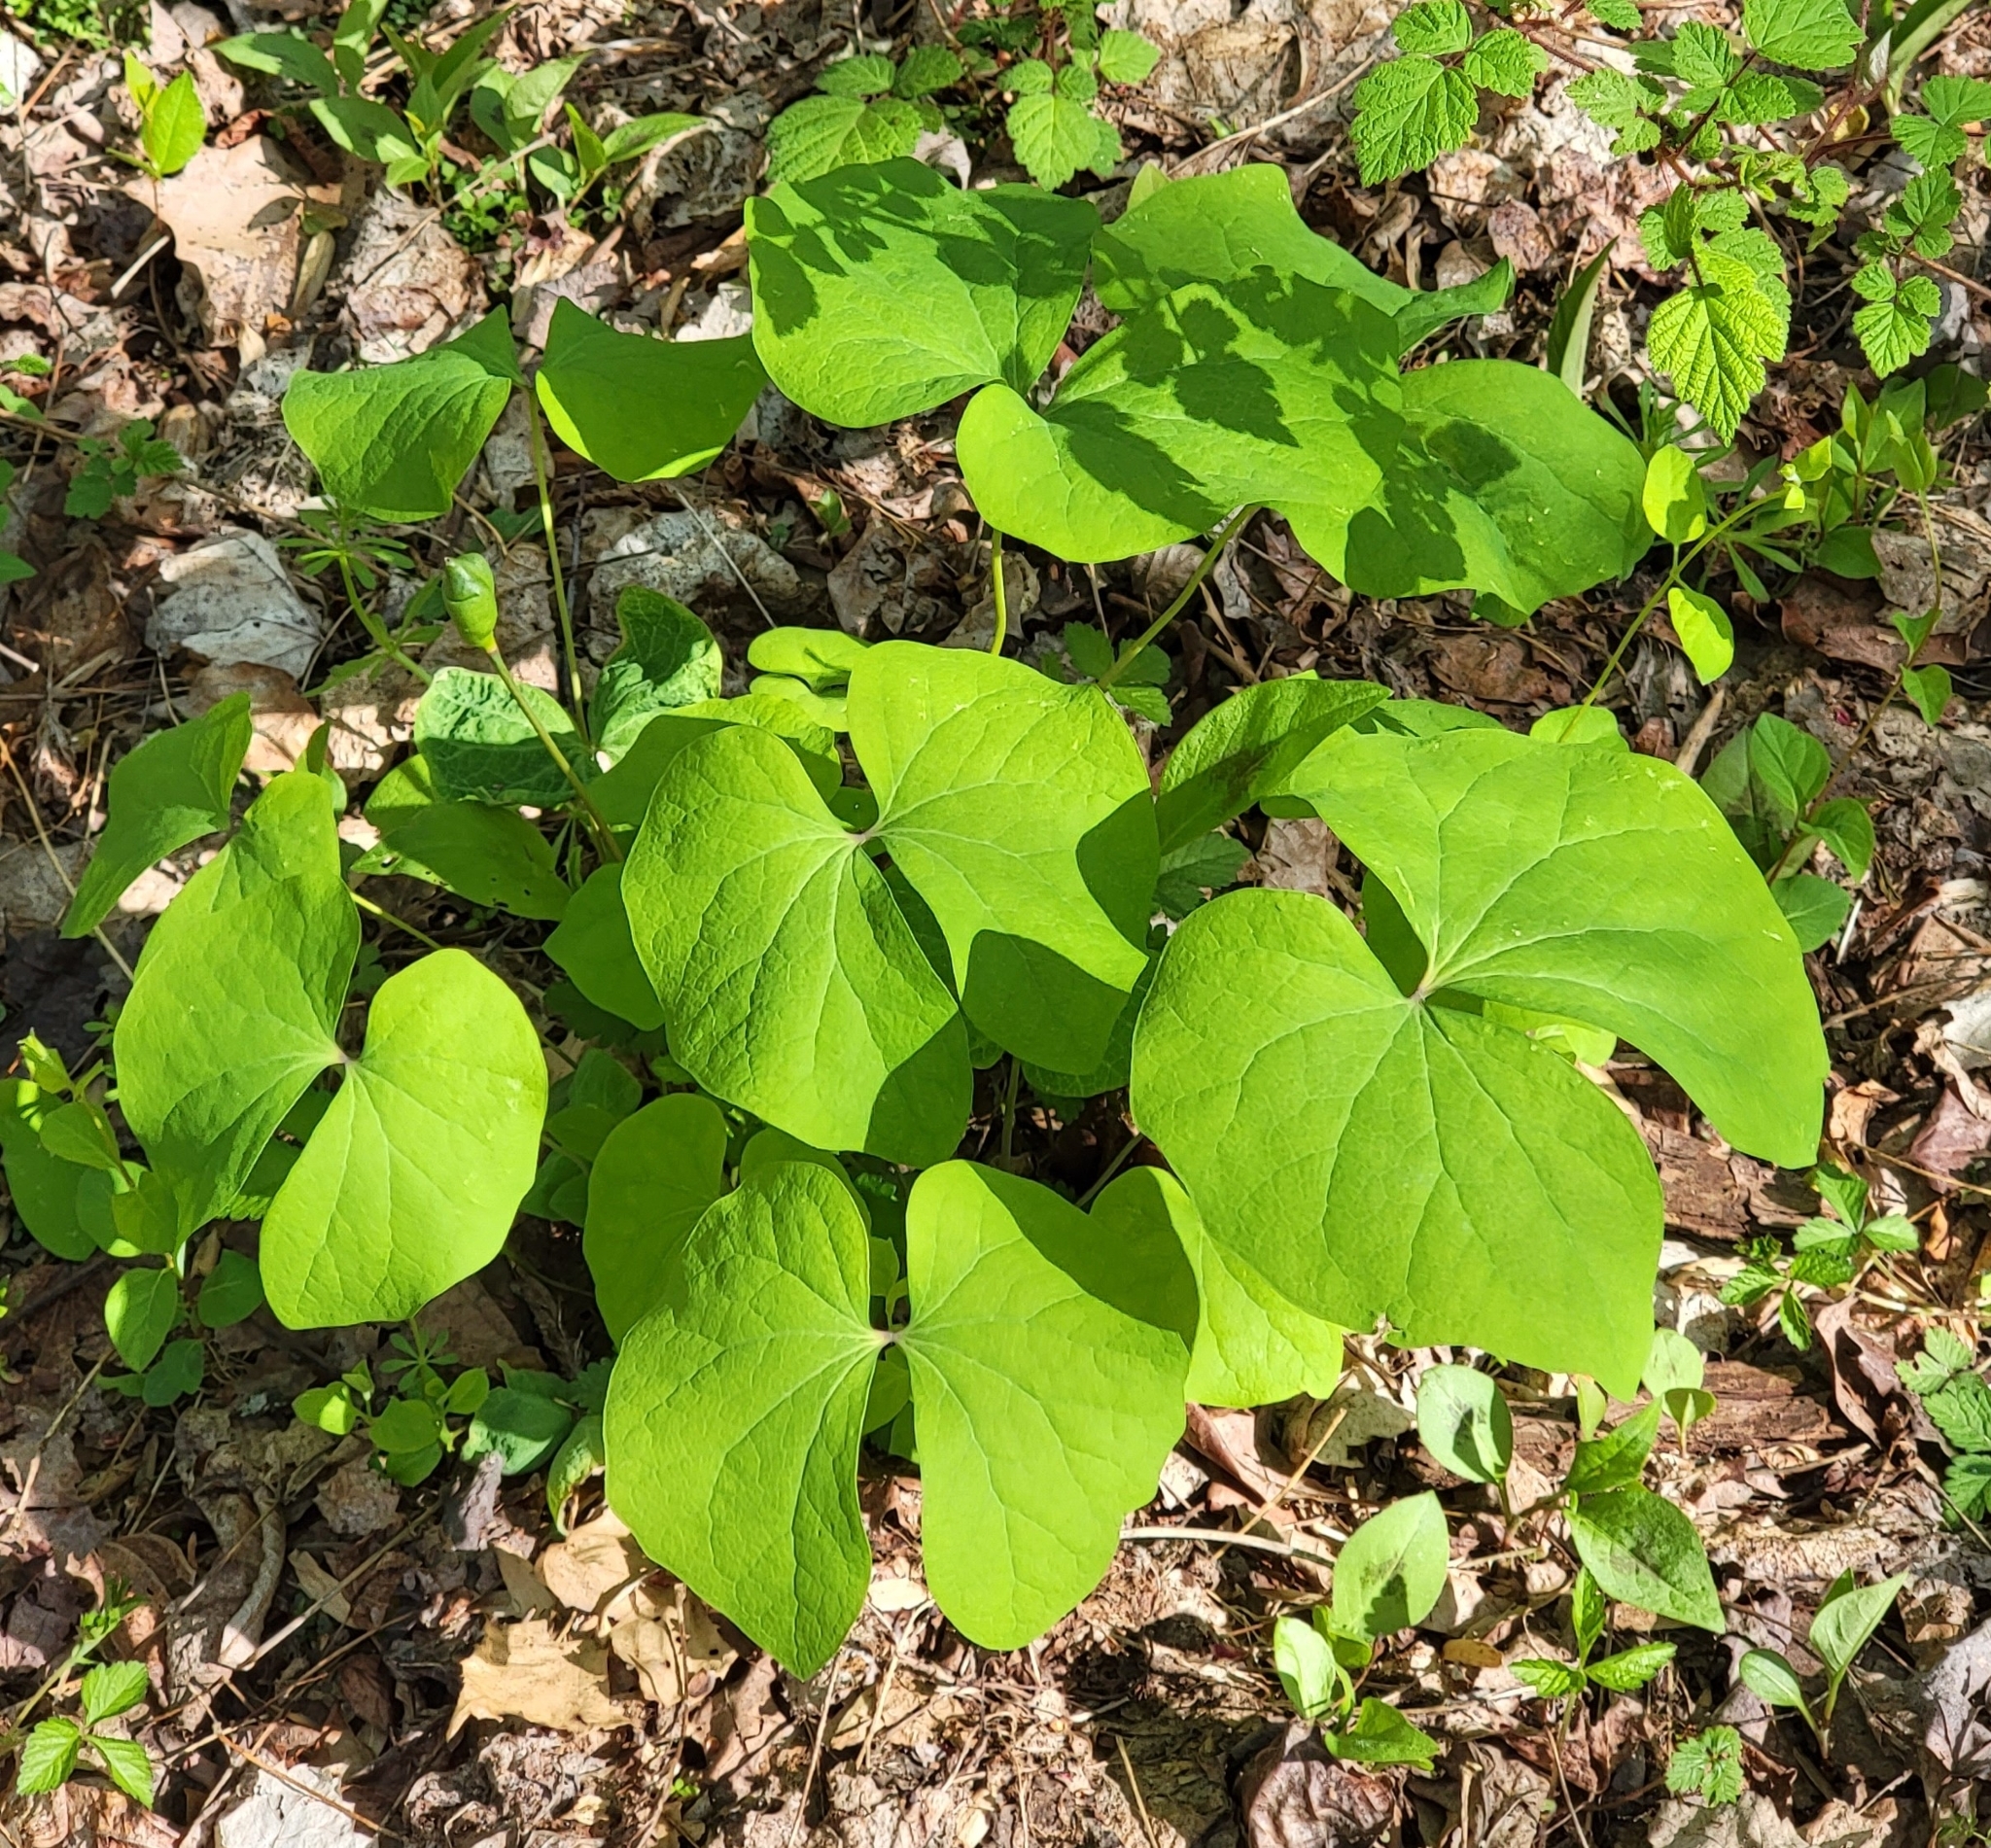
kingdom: Plantae
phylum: Tracheophyta
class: Magnoliopsida
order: Ranunculales
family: Berberidaceae
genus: Jeffersonia
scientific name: Jeffersonia diphylla
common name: Rheumatism-root
